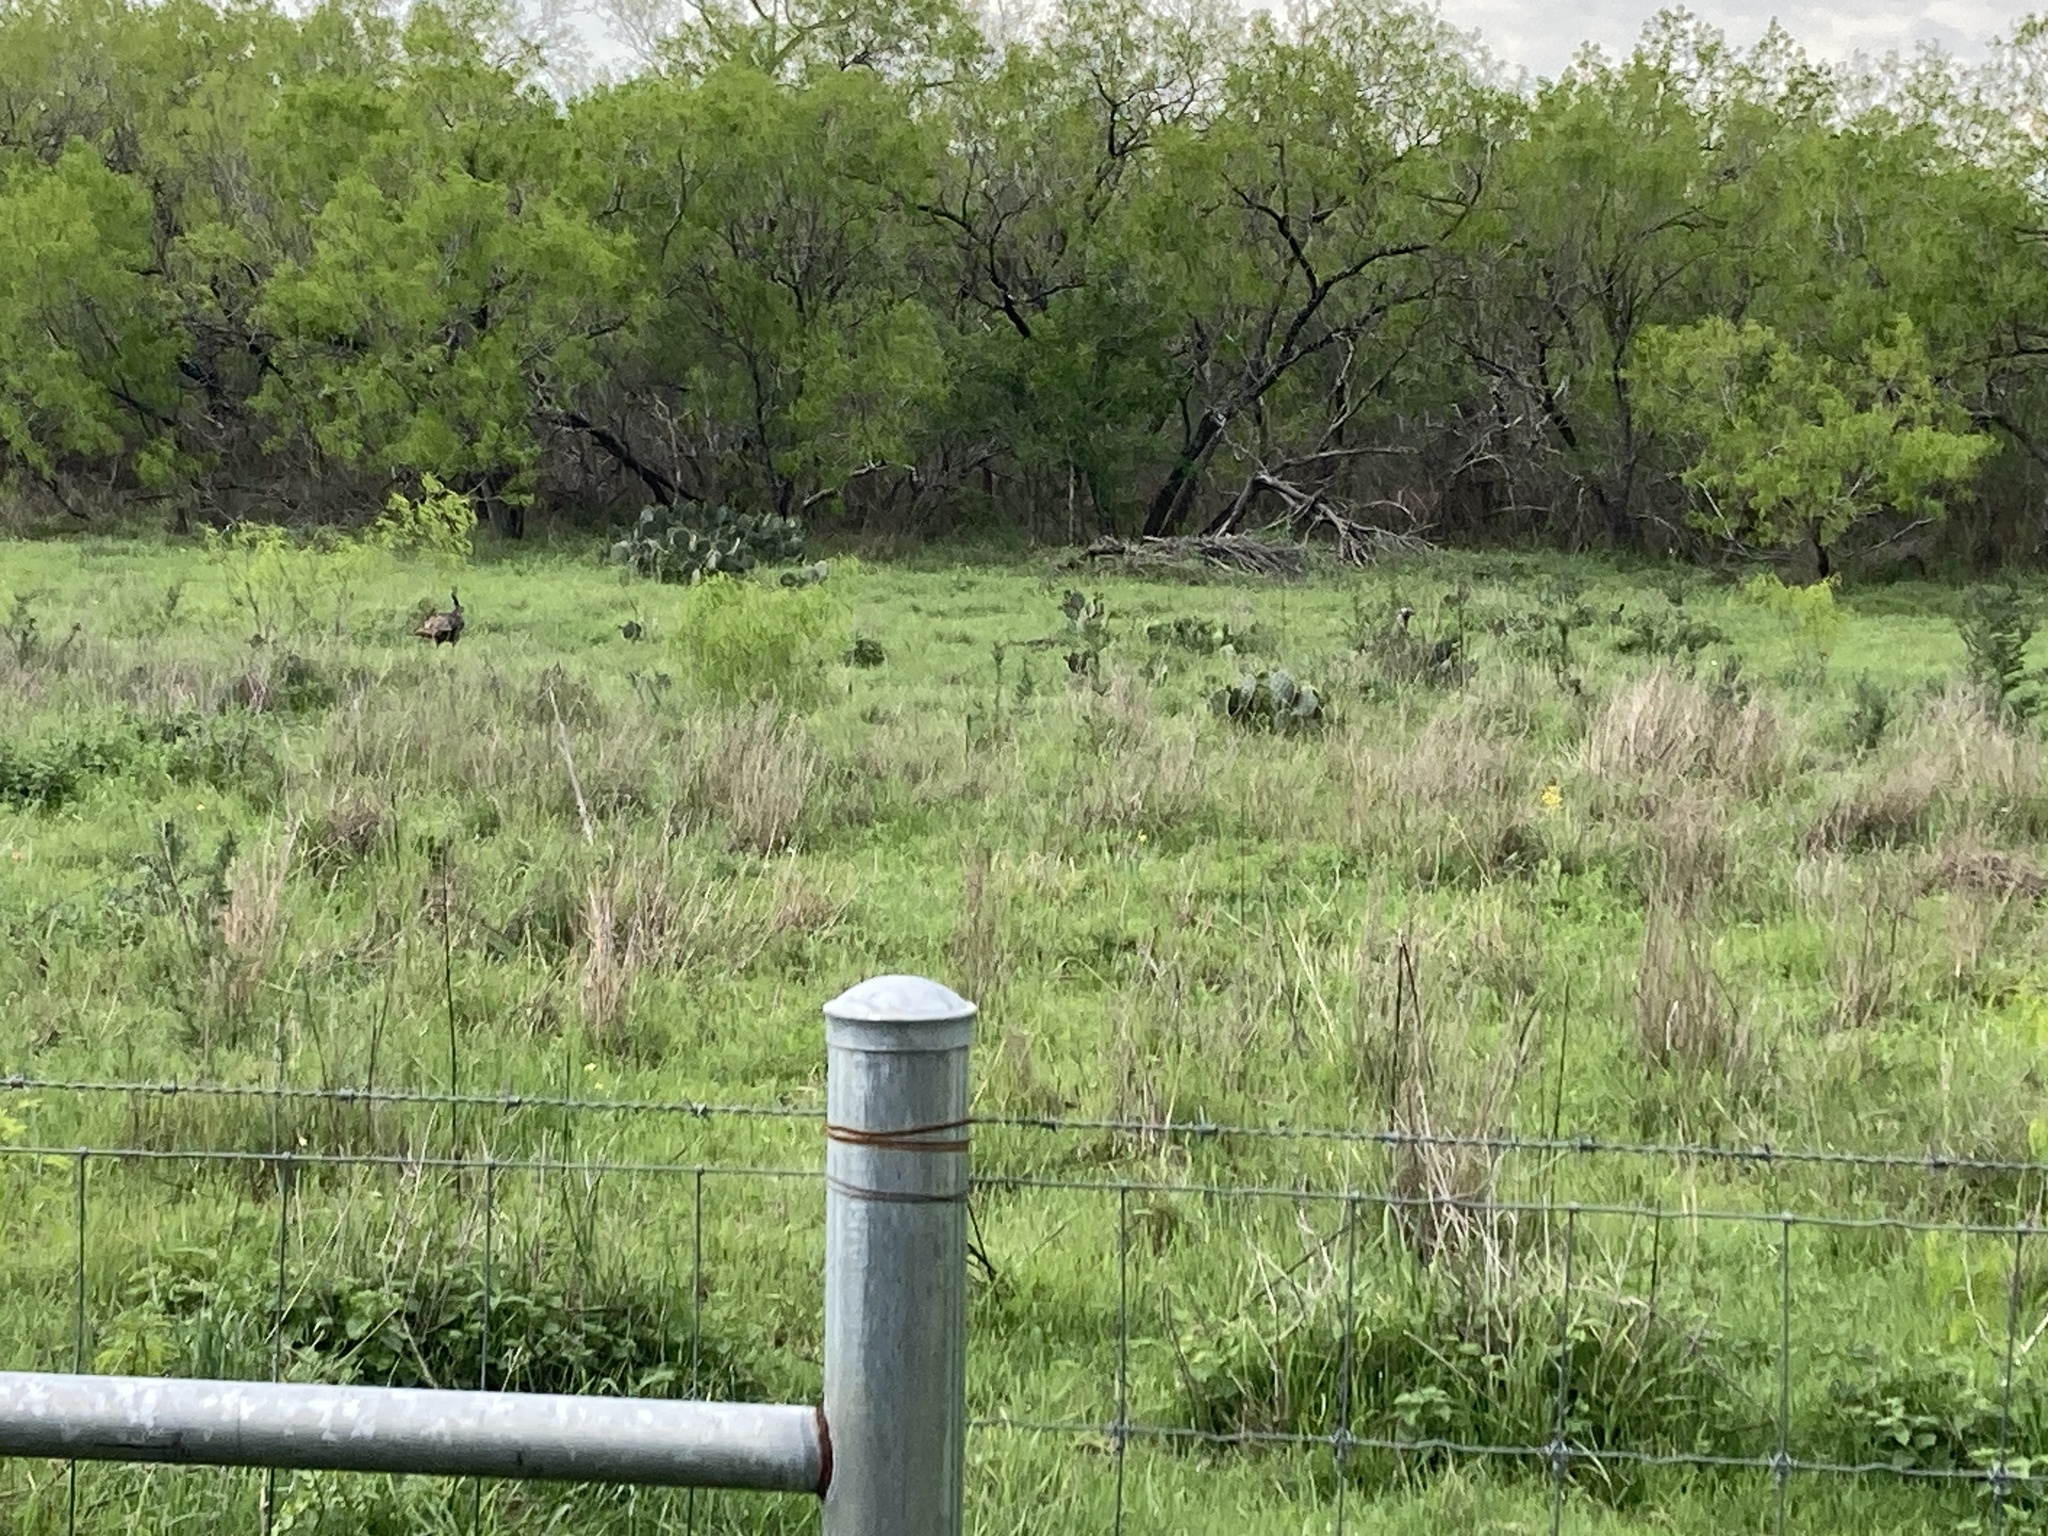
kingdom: Animalia
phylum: Chordata
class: Aves
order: Galliformes
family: Phasianidae
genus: Meleagris
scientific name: Meleagris gallopavo
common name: Wild turkey
